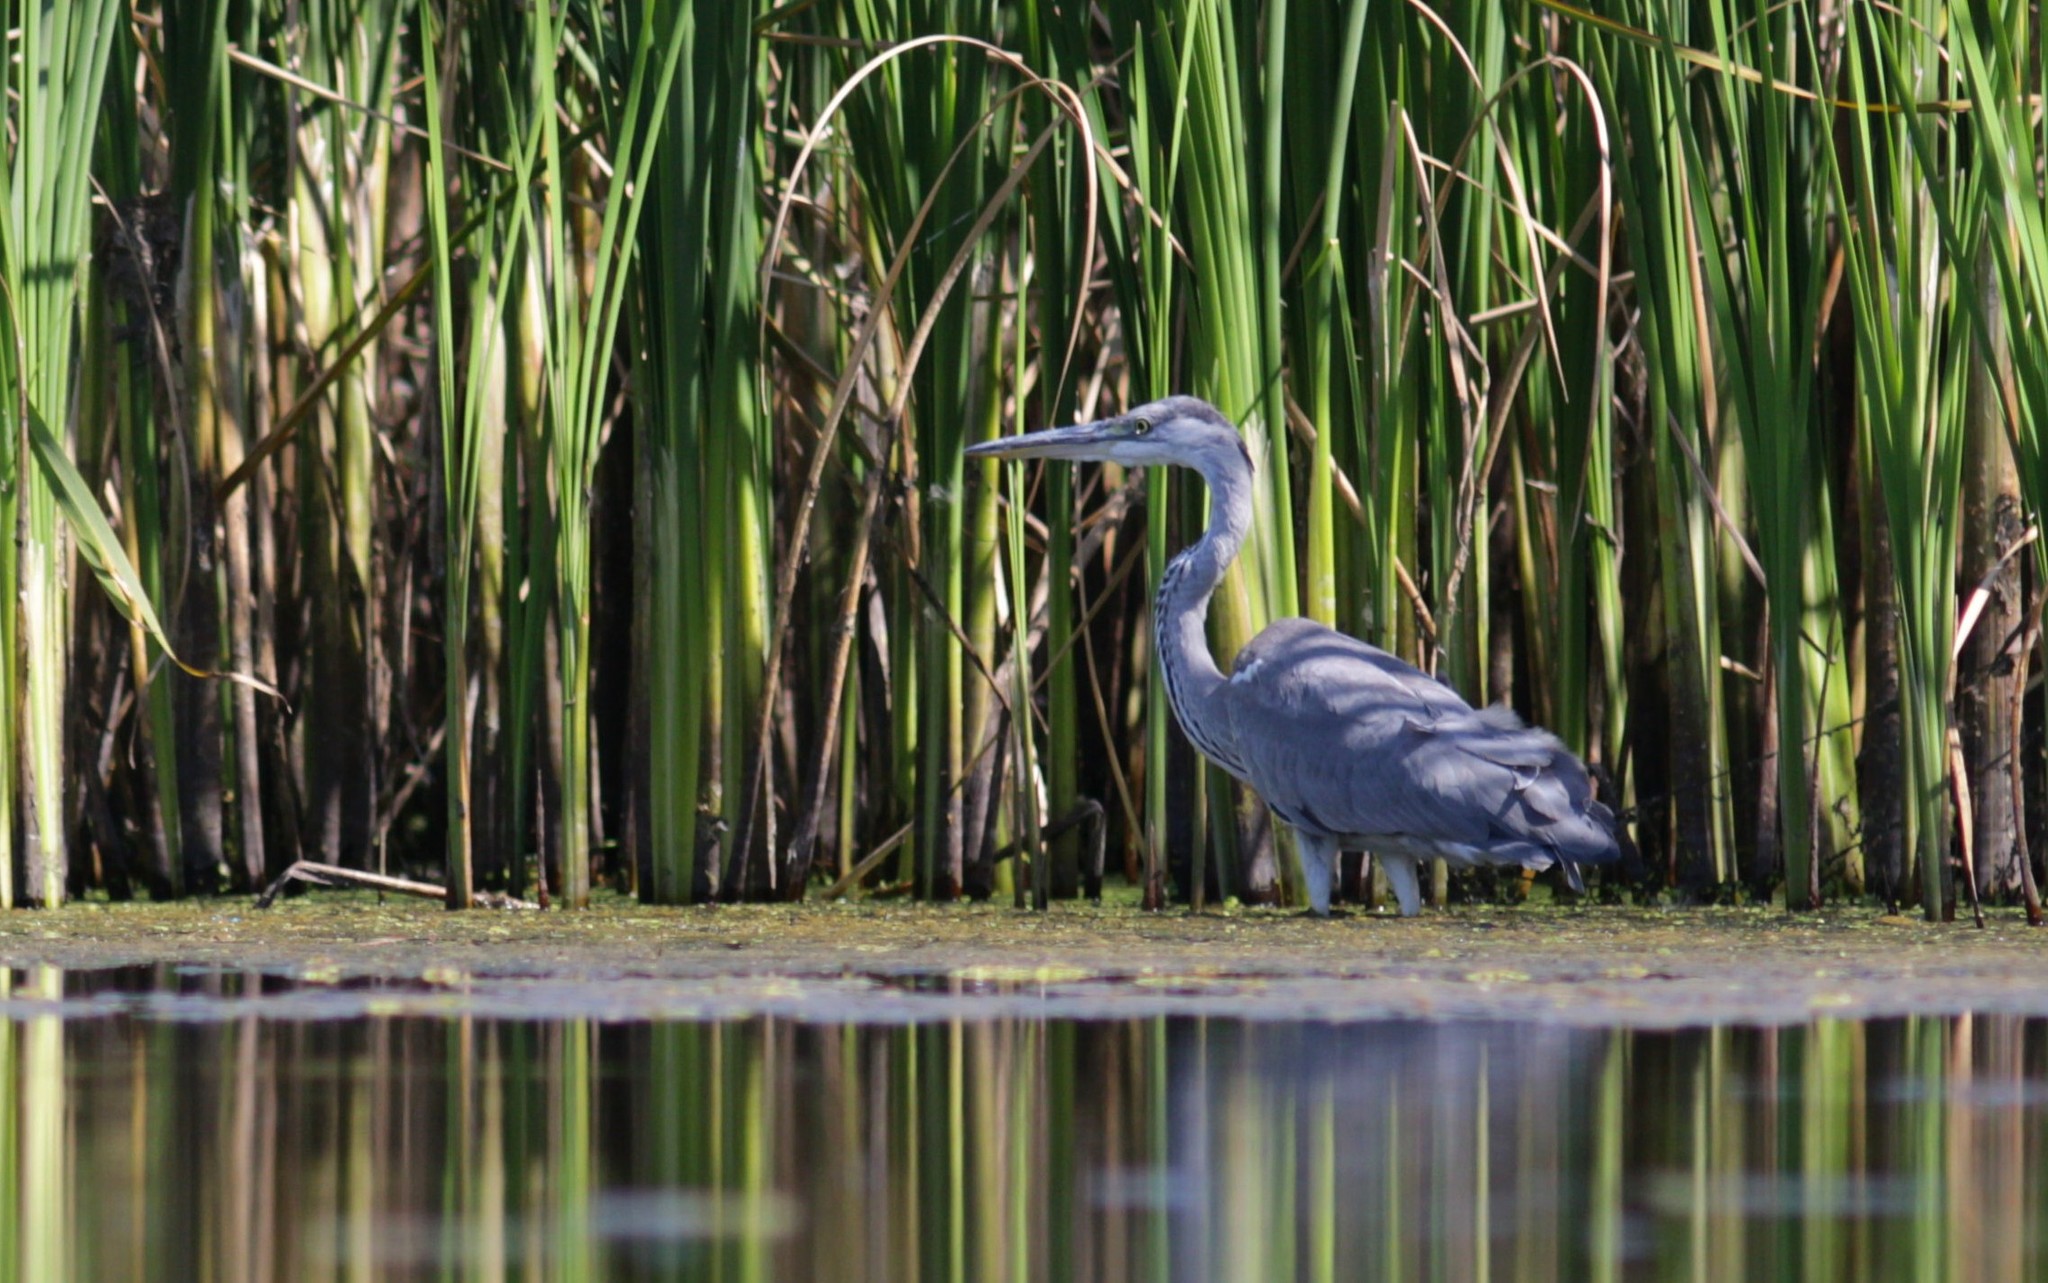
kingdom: Animalia
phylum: Chordata
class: Aves
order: Pelecaniformes
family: Ardeidae
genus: Ardea
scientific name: Ardea cinerea
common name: Grey heron
